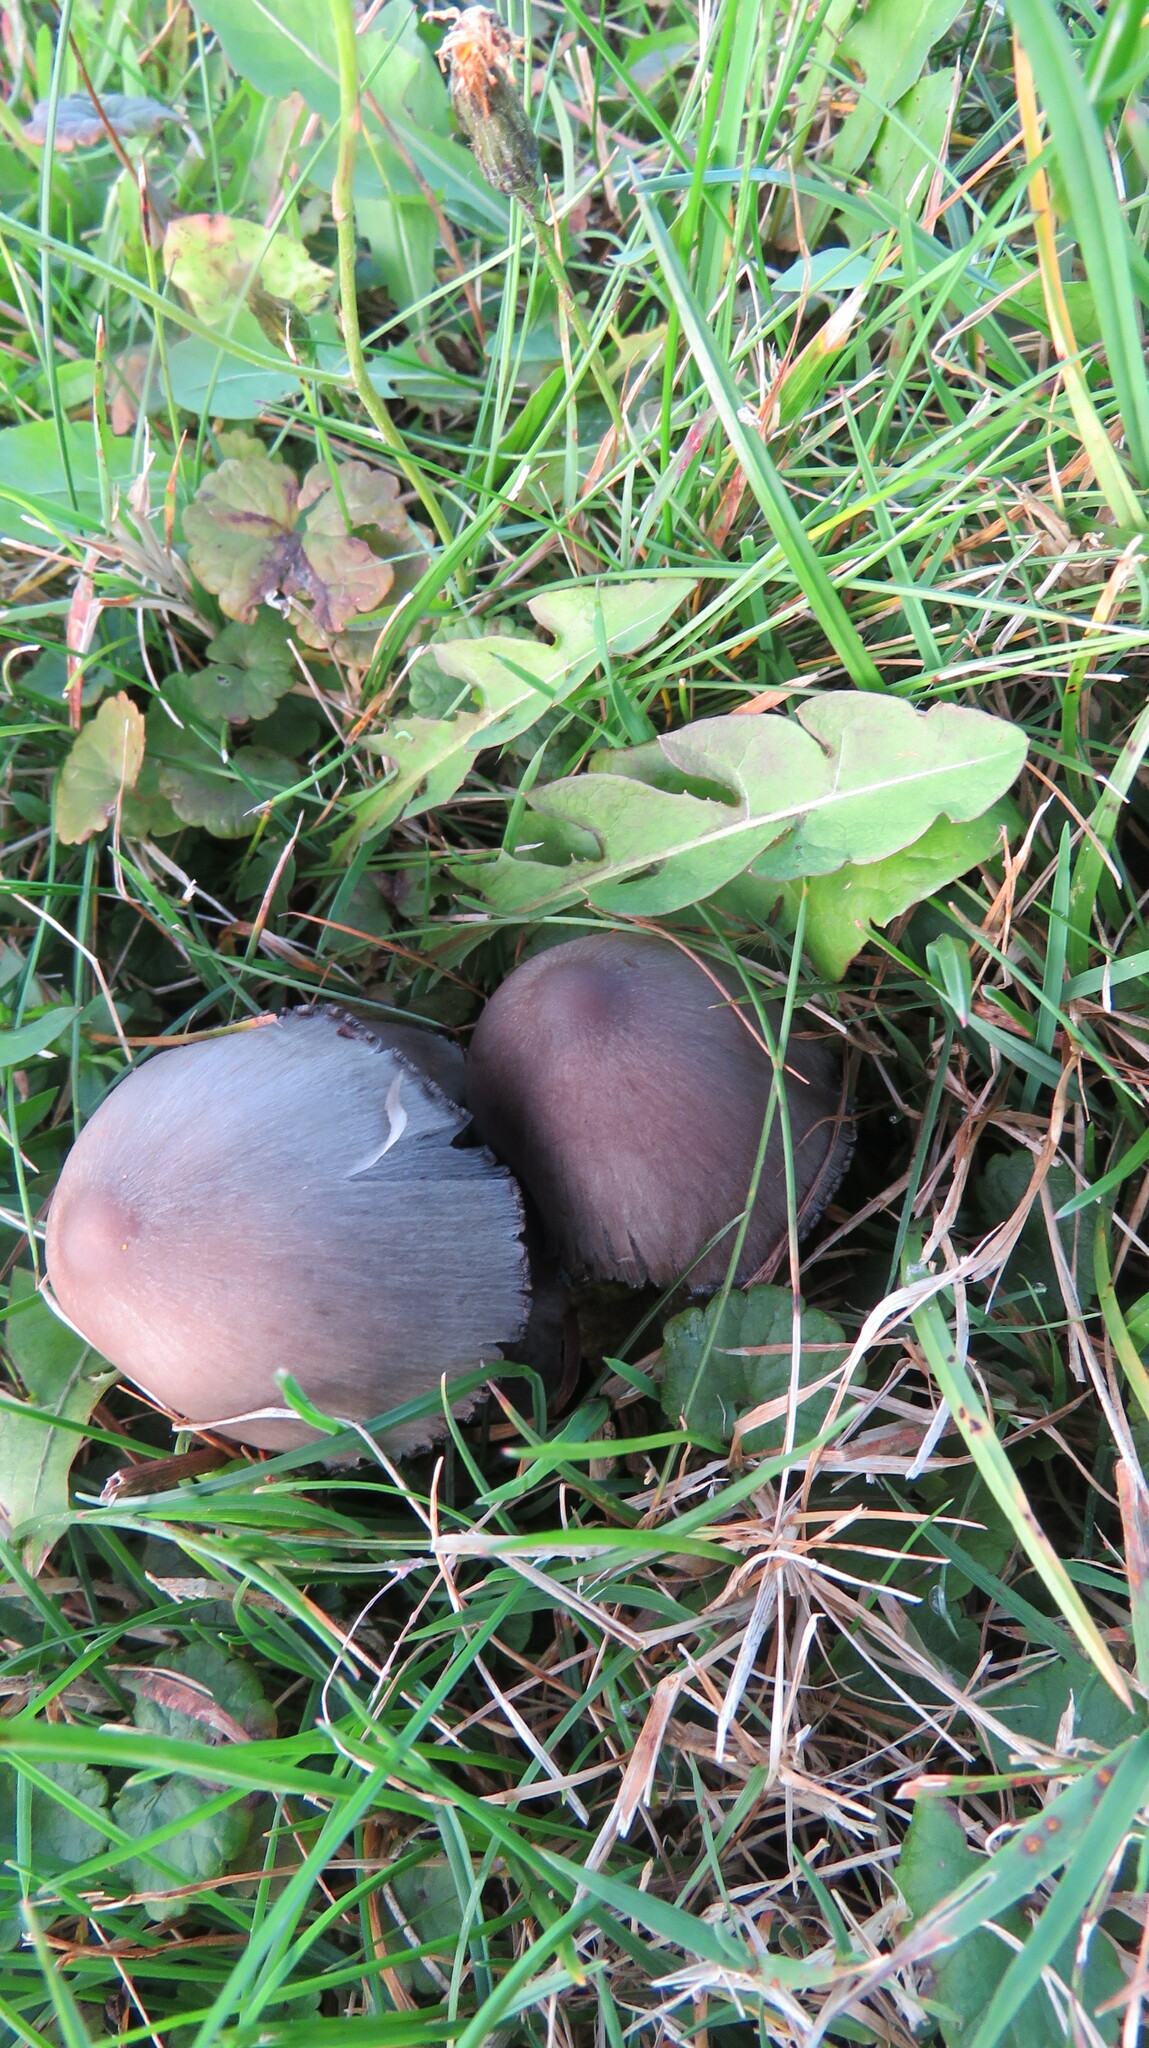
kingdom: Fungi
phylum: Basidiomycota
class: Agaricomycetes
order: Agaricales
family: Psathyrellaceae
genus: Coprinopsis
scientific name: Coprinopsis atramentaria
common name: Common ink-cap
